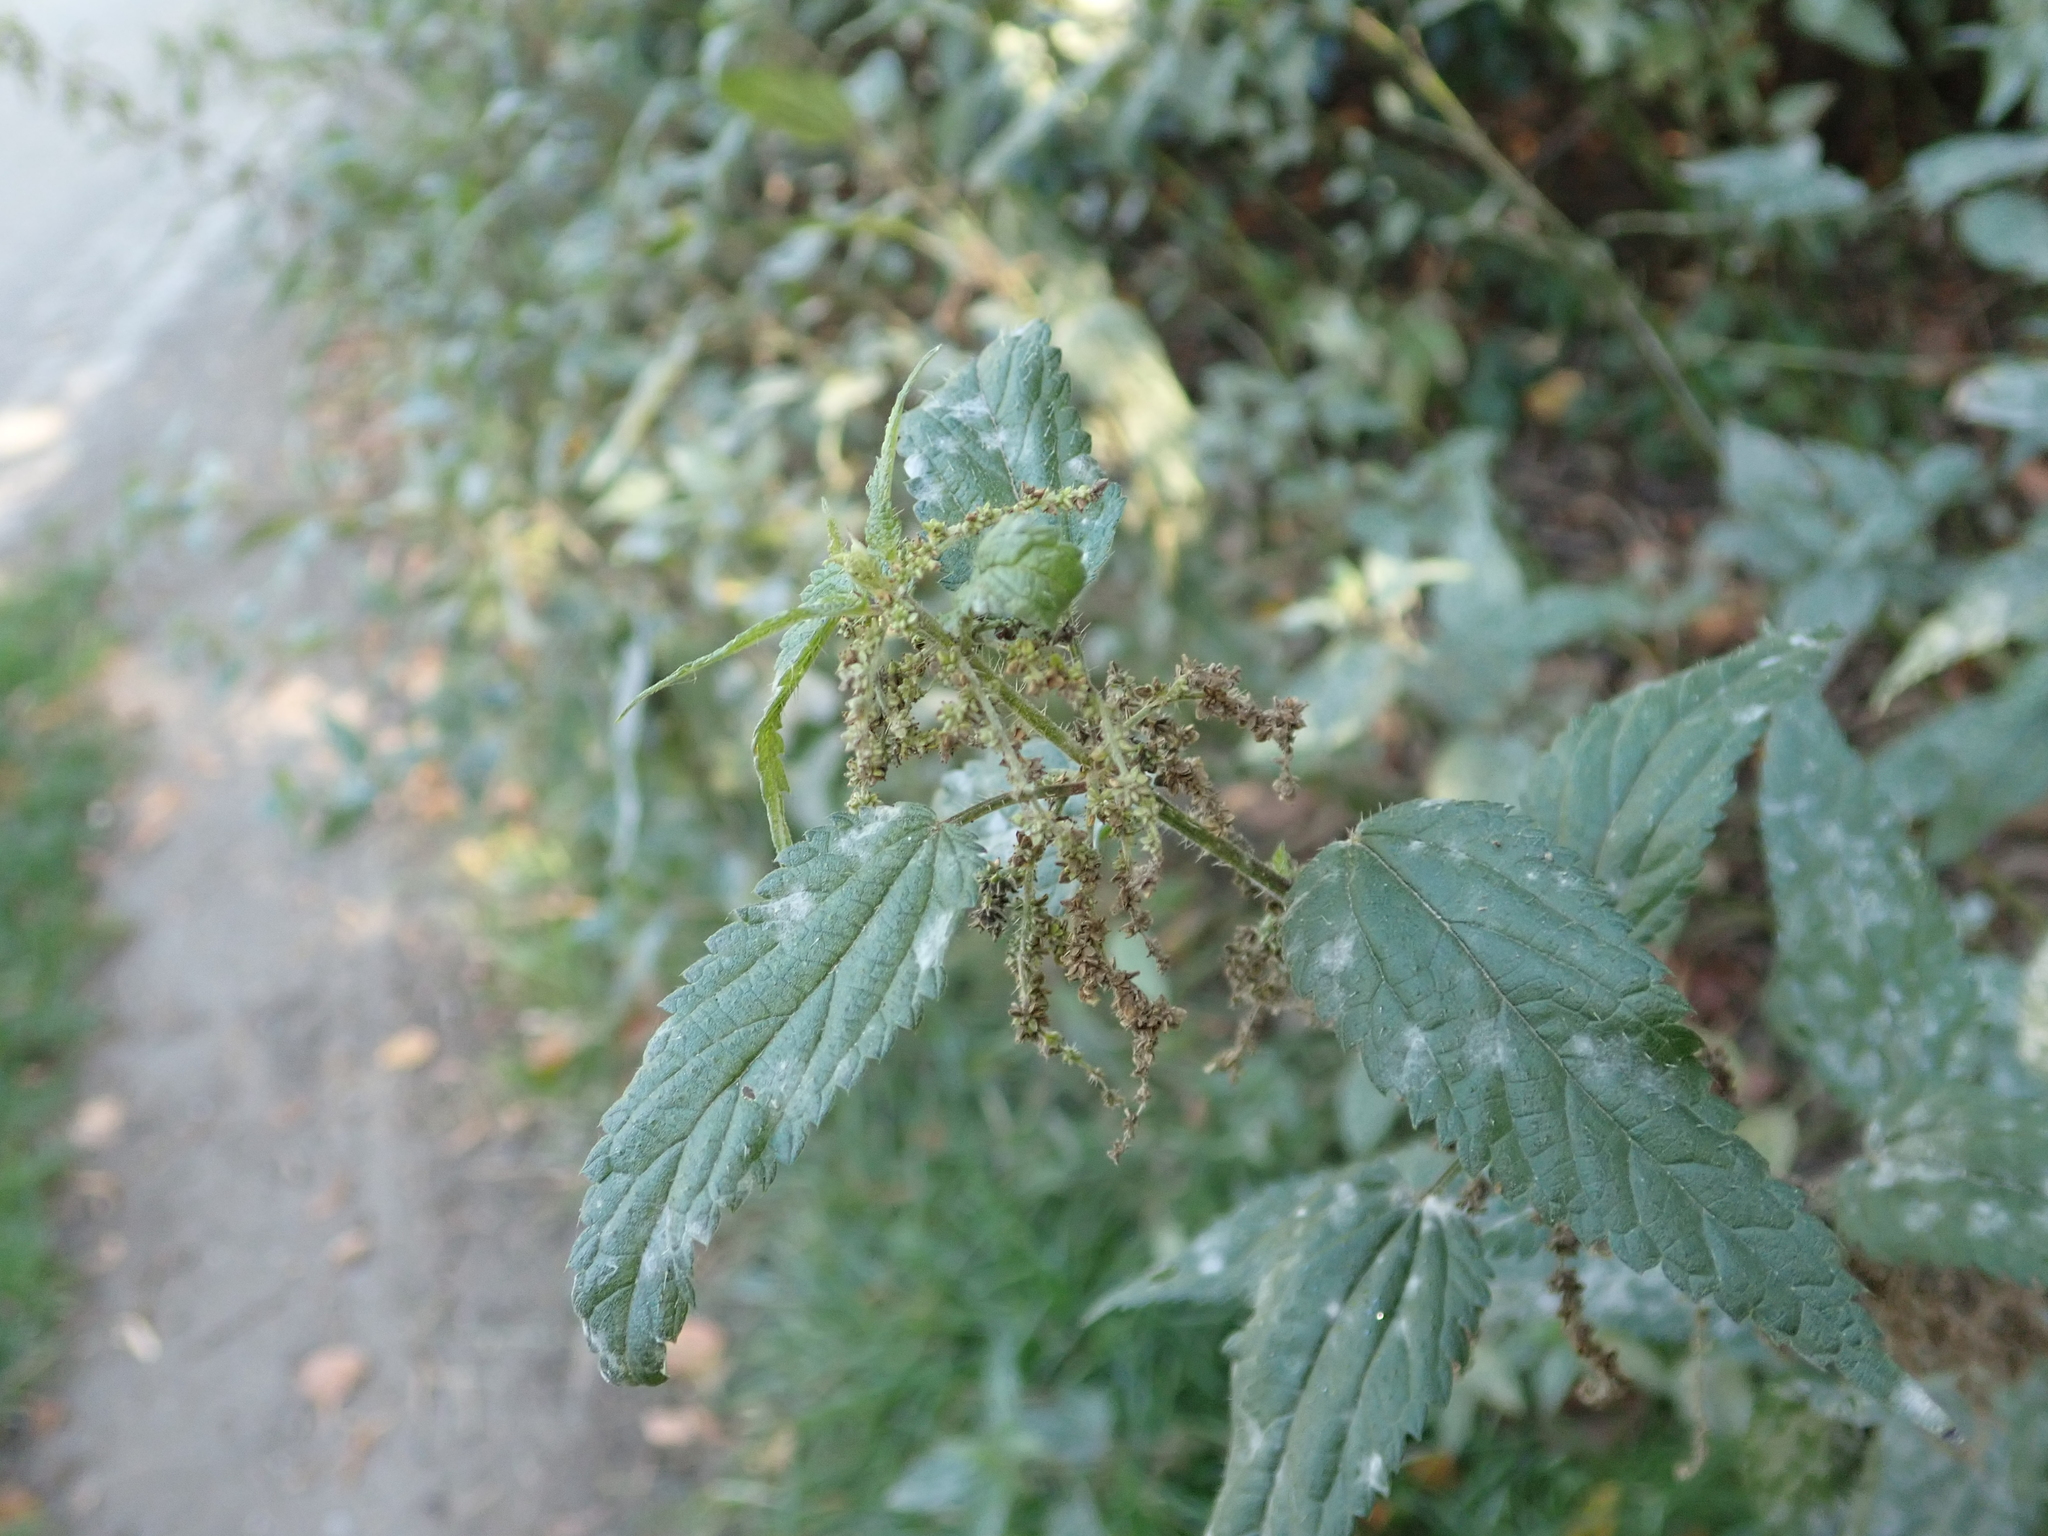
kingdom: Plantae
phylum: Tracheophyta
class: Magnoliopsida
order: Rosales
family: Urticaceae
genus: Urtica
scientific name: Urtica dioica
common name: Common nettle
